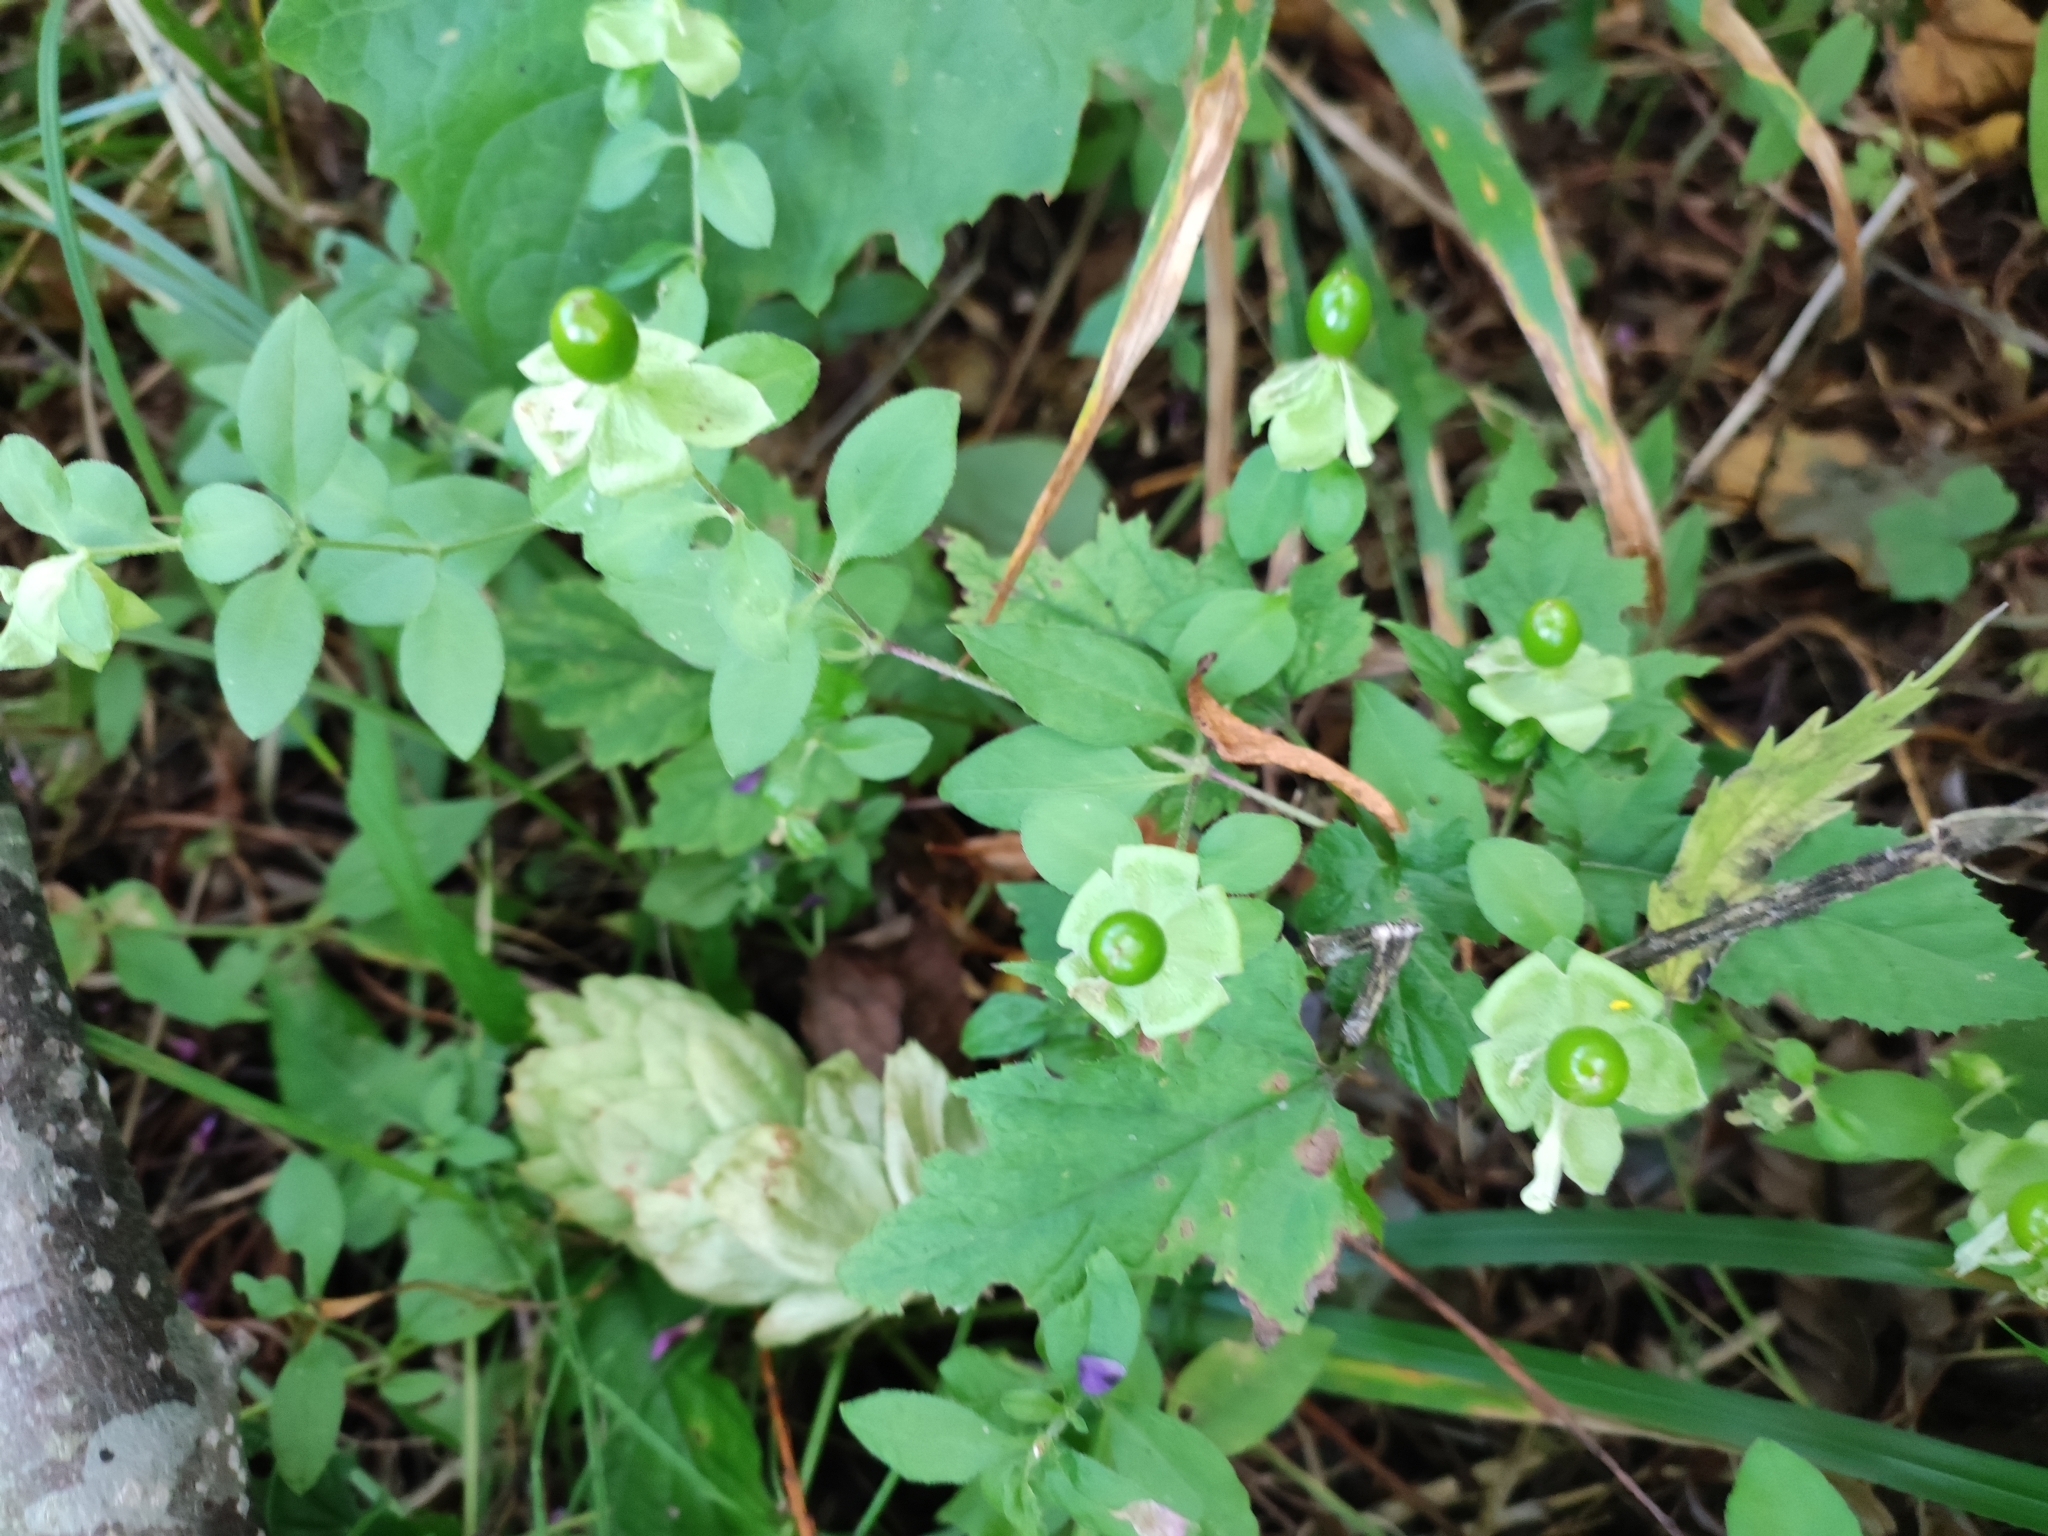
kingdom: Plantae
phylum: Tracheophyta
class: Magnoliopsida
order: Caryophyllales
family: Caryophyllaceae
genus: Silene
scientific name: Silene baccifera
